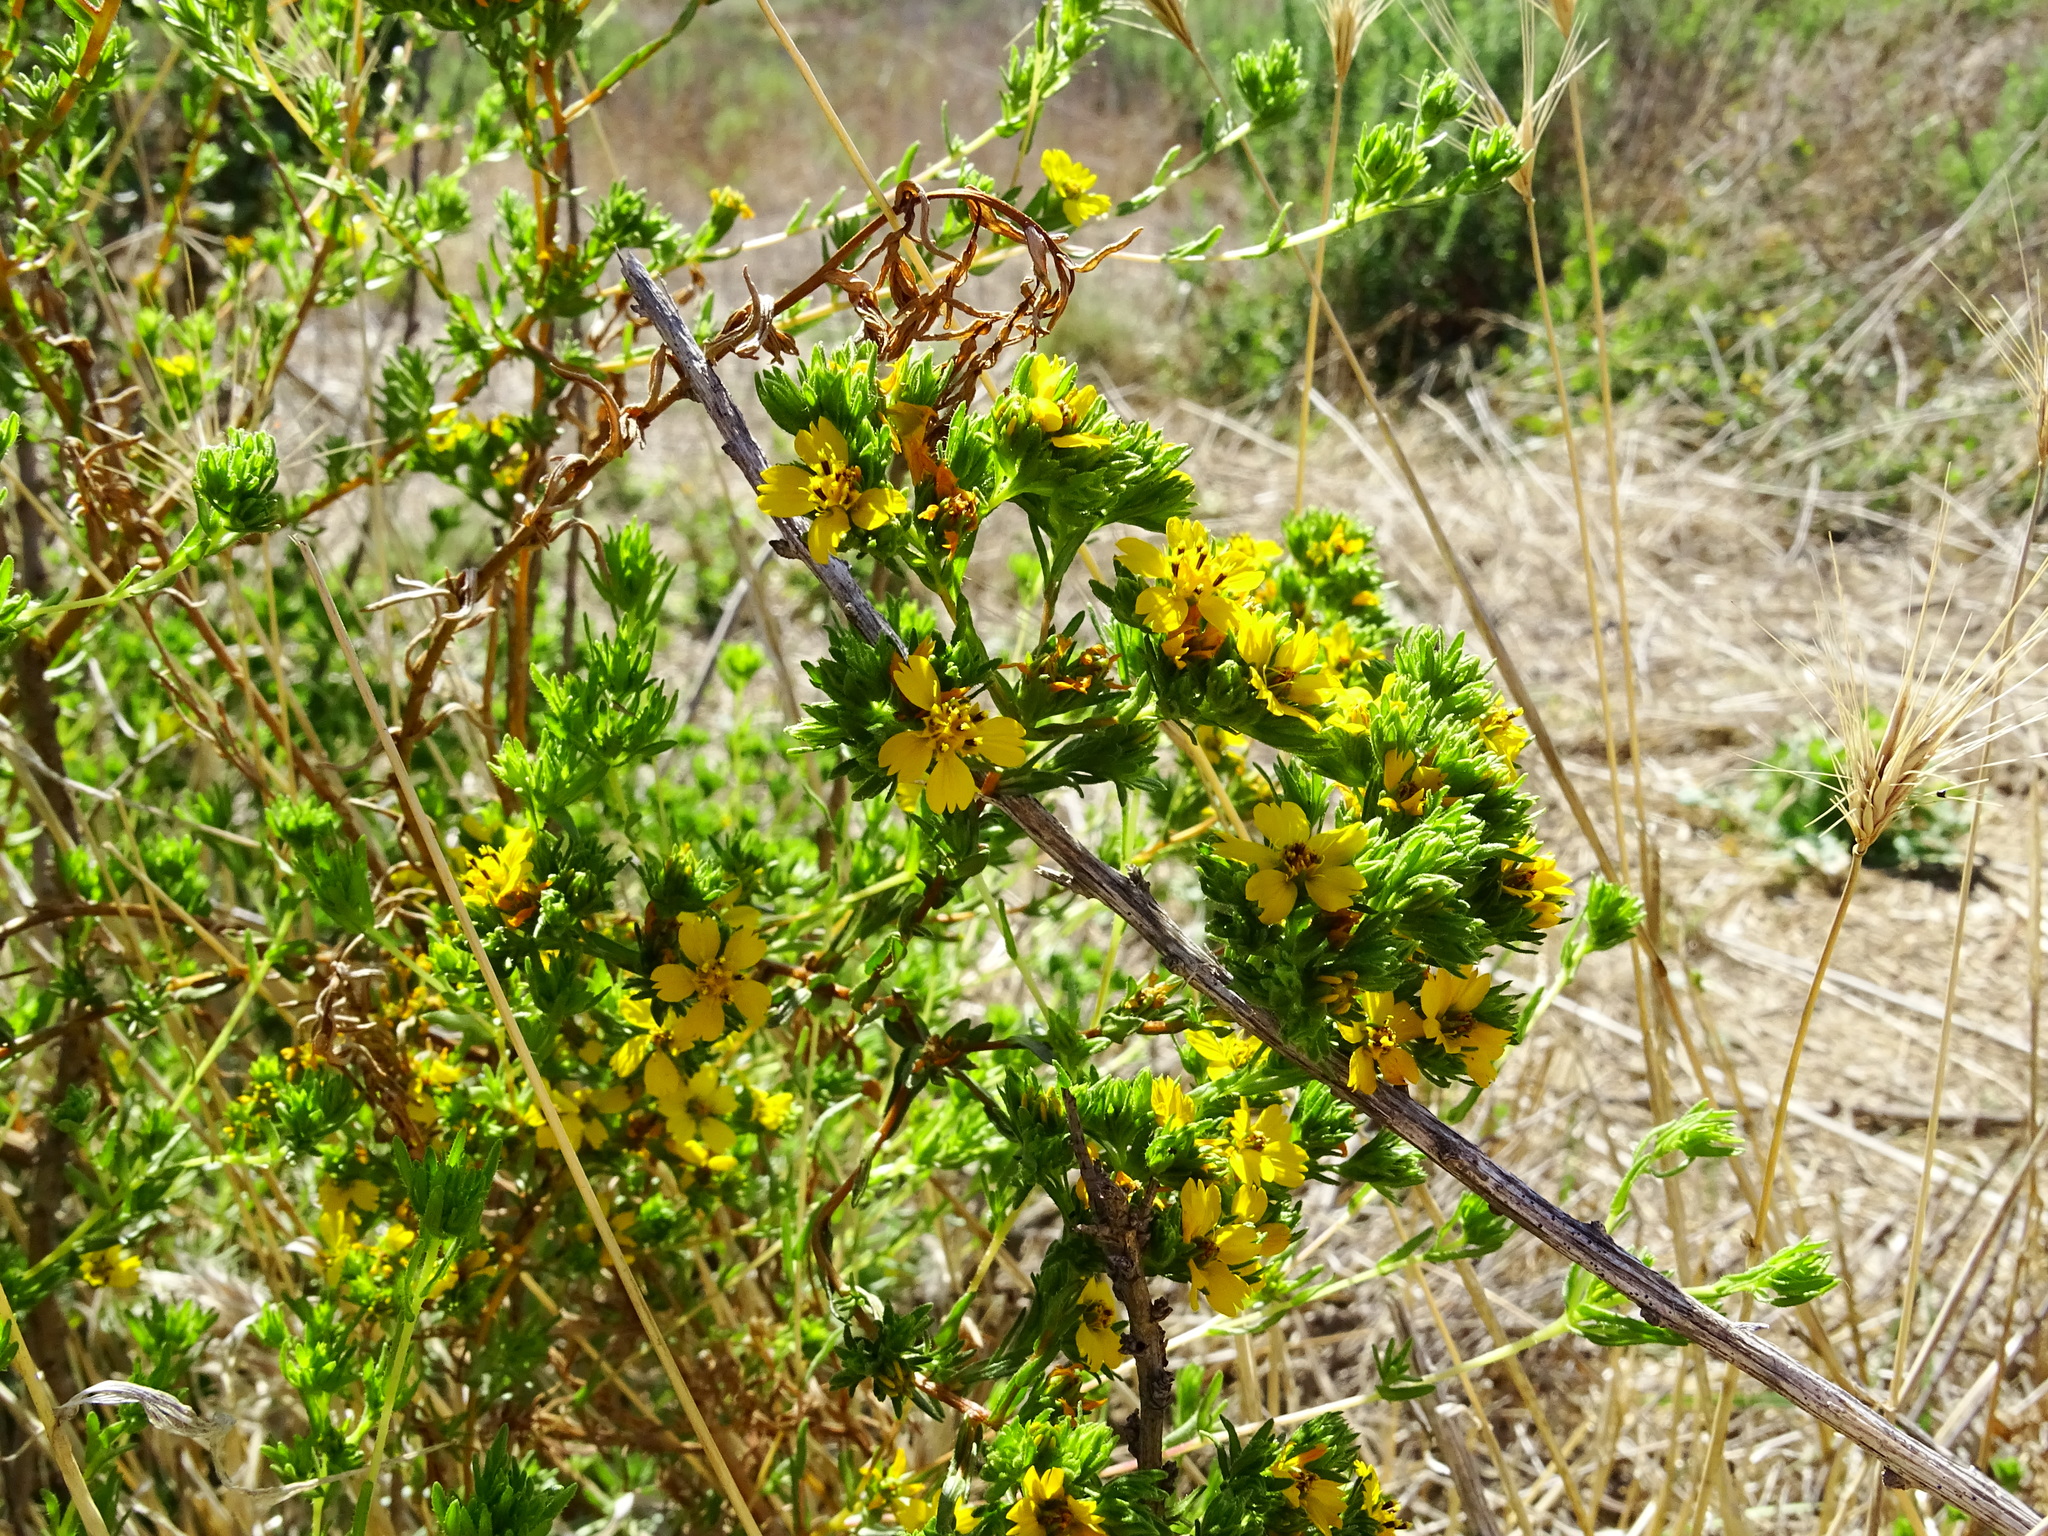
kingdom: Plantae
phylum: Tracheophyta
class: Magnoliopsida
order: Asterales
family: Asteraceae
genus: Deinandra
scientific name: Deinandra fasciculata
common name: Clustered tarweed
